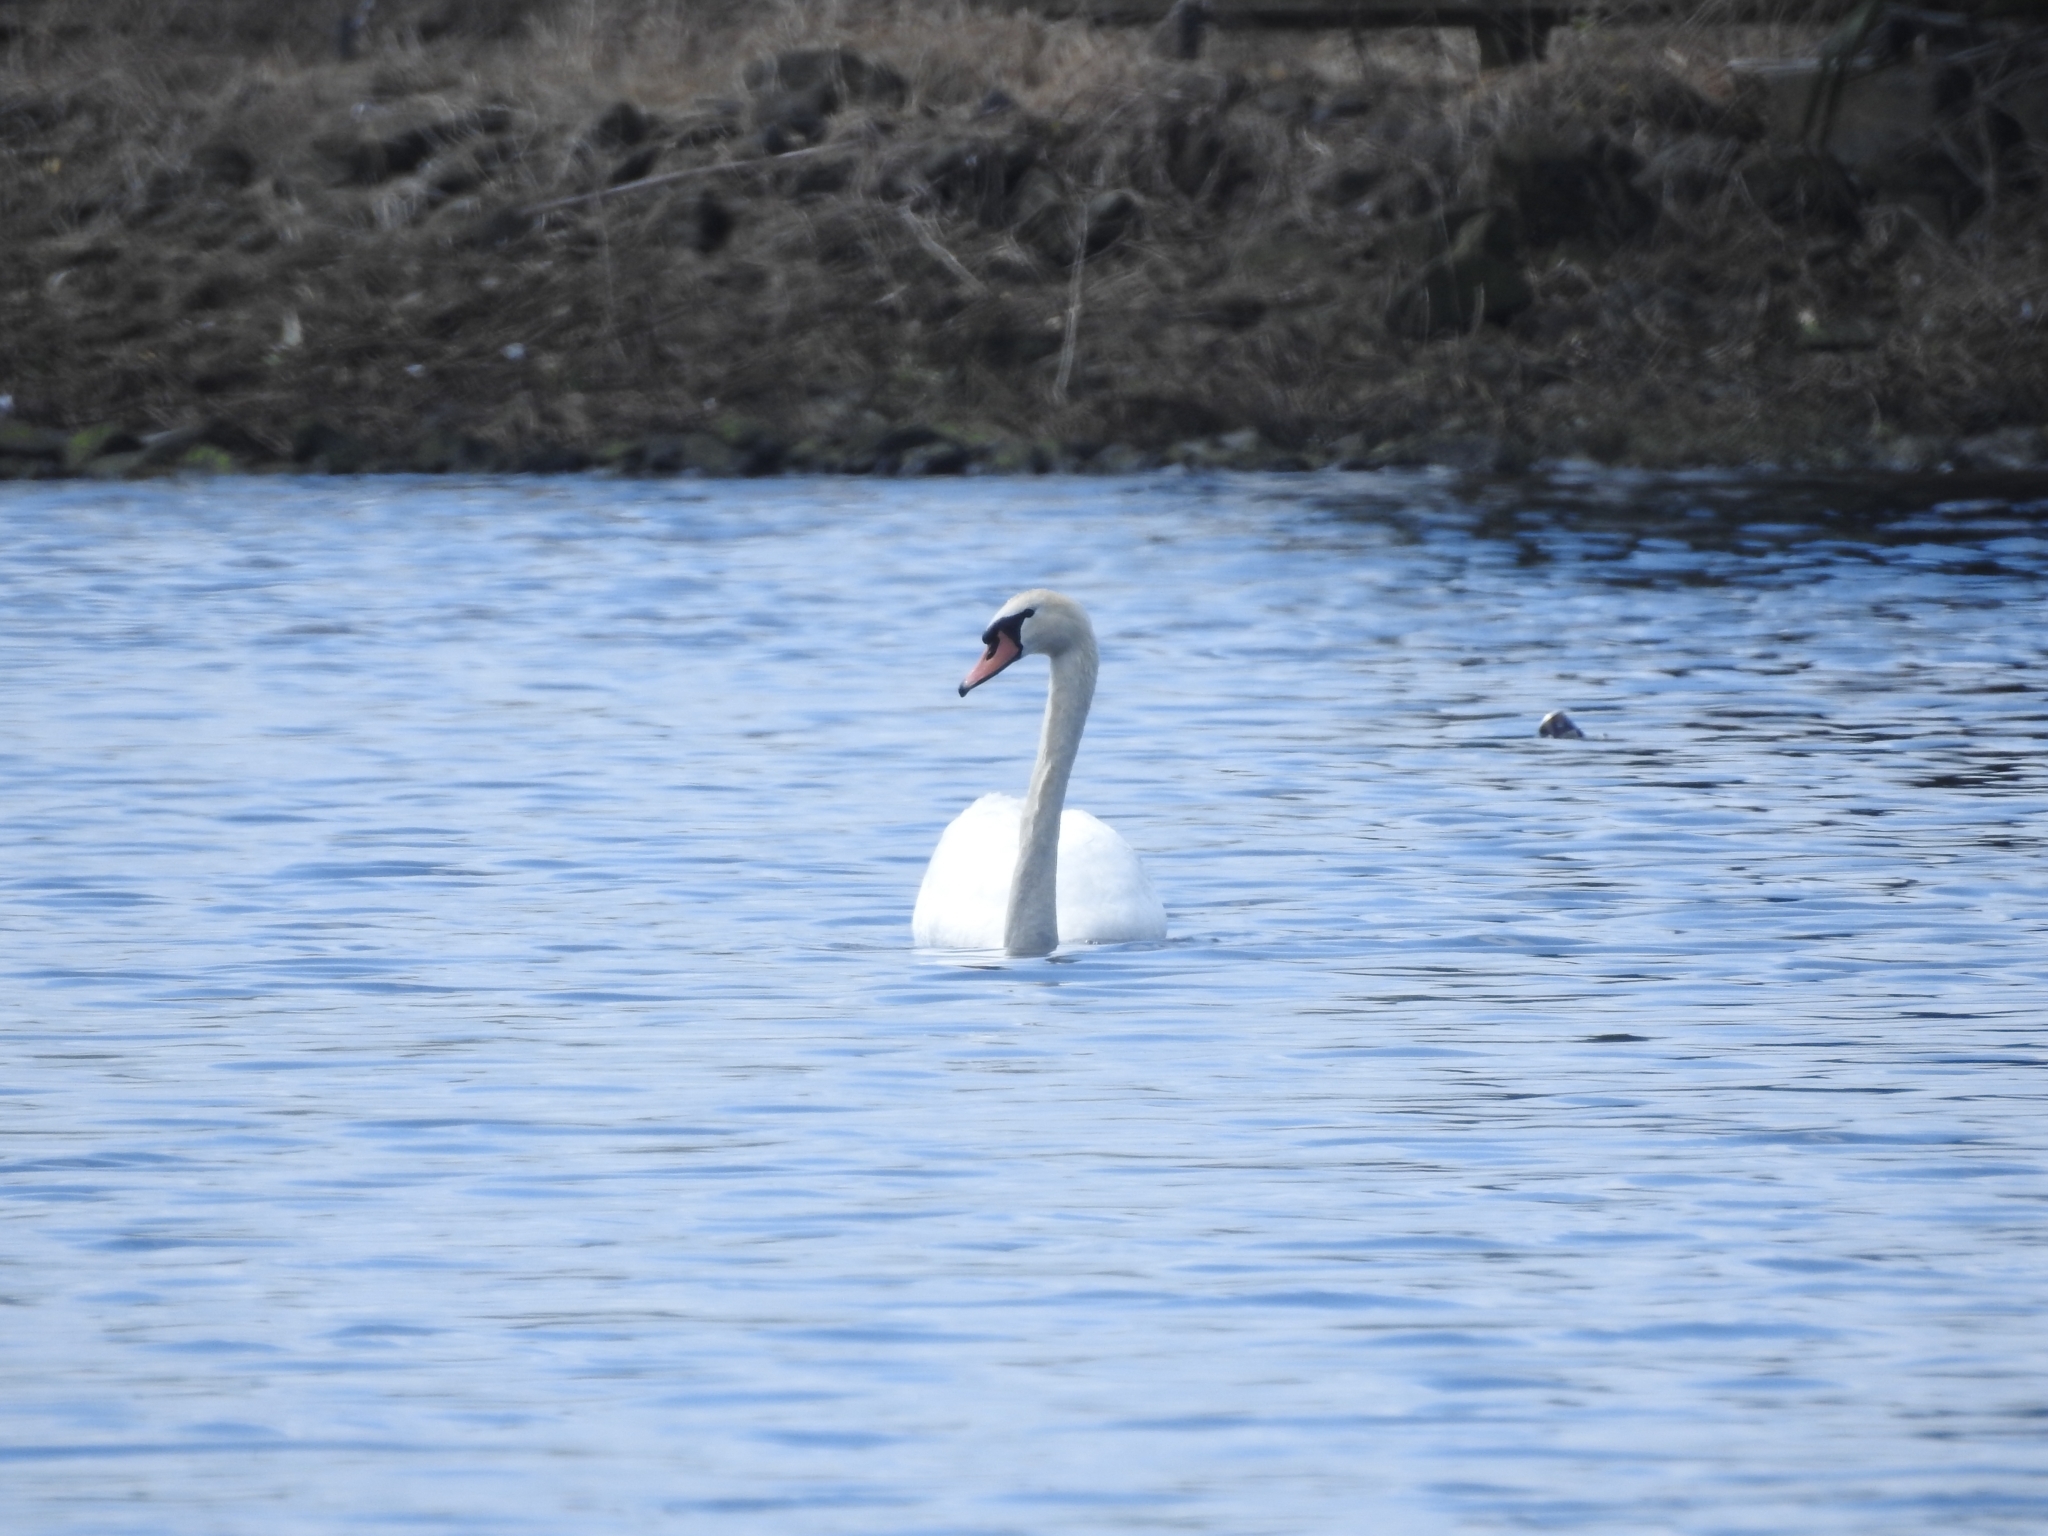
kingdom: Animalia
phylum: Chordata
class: Aves
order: Anseriformes
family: Anatidae
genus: Cygnus
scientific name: Cygnus olor
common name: Mute swan
